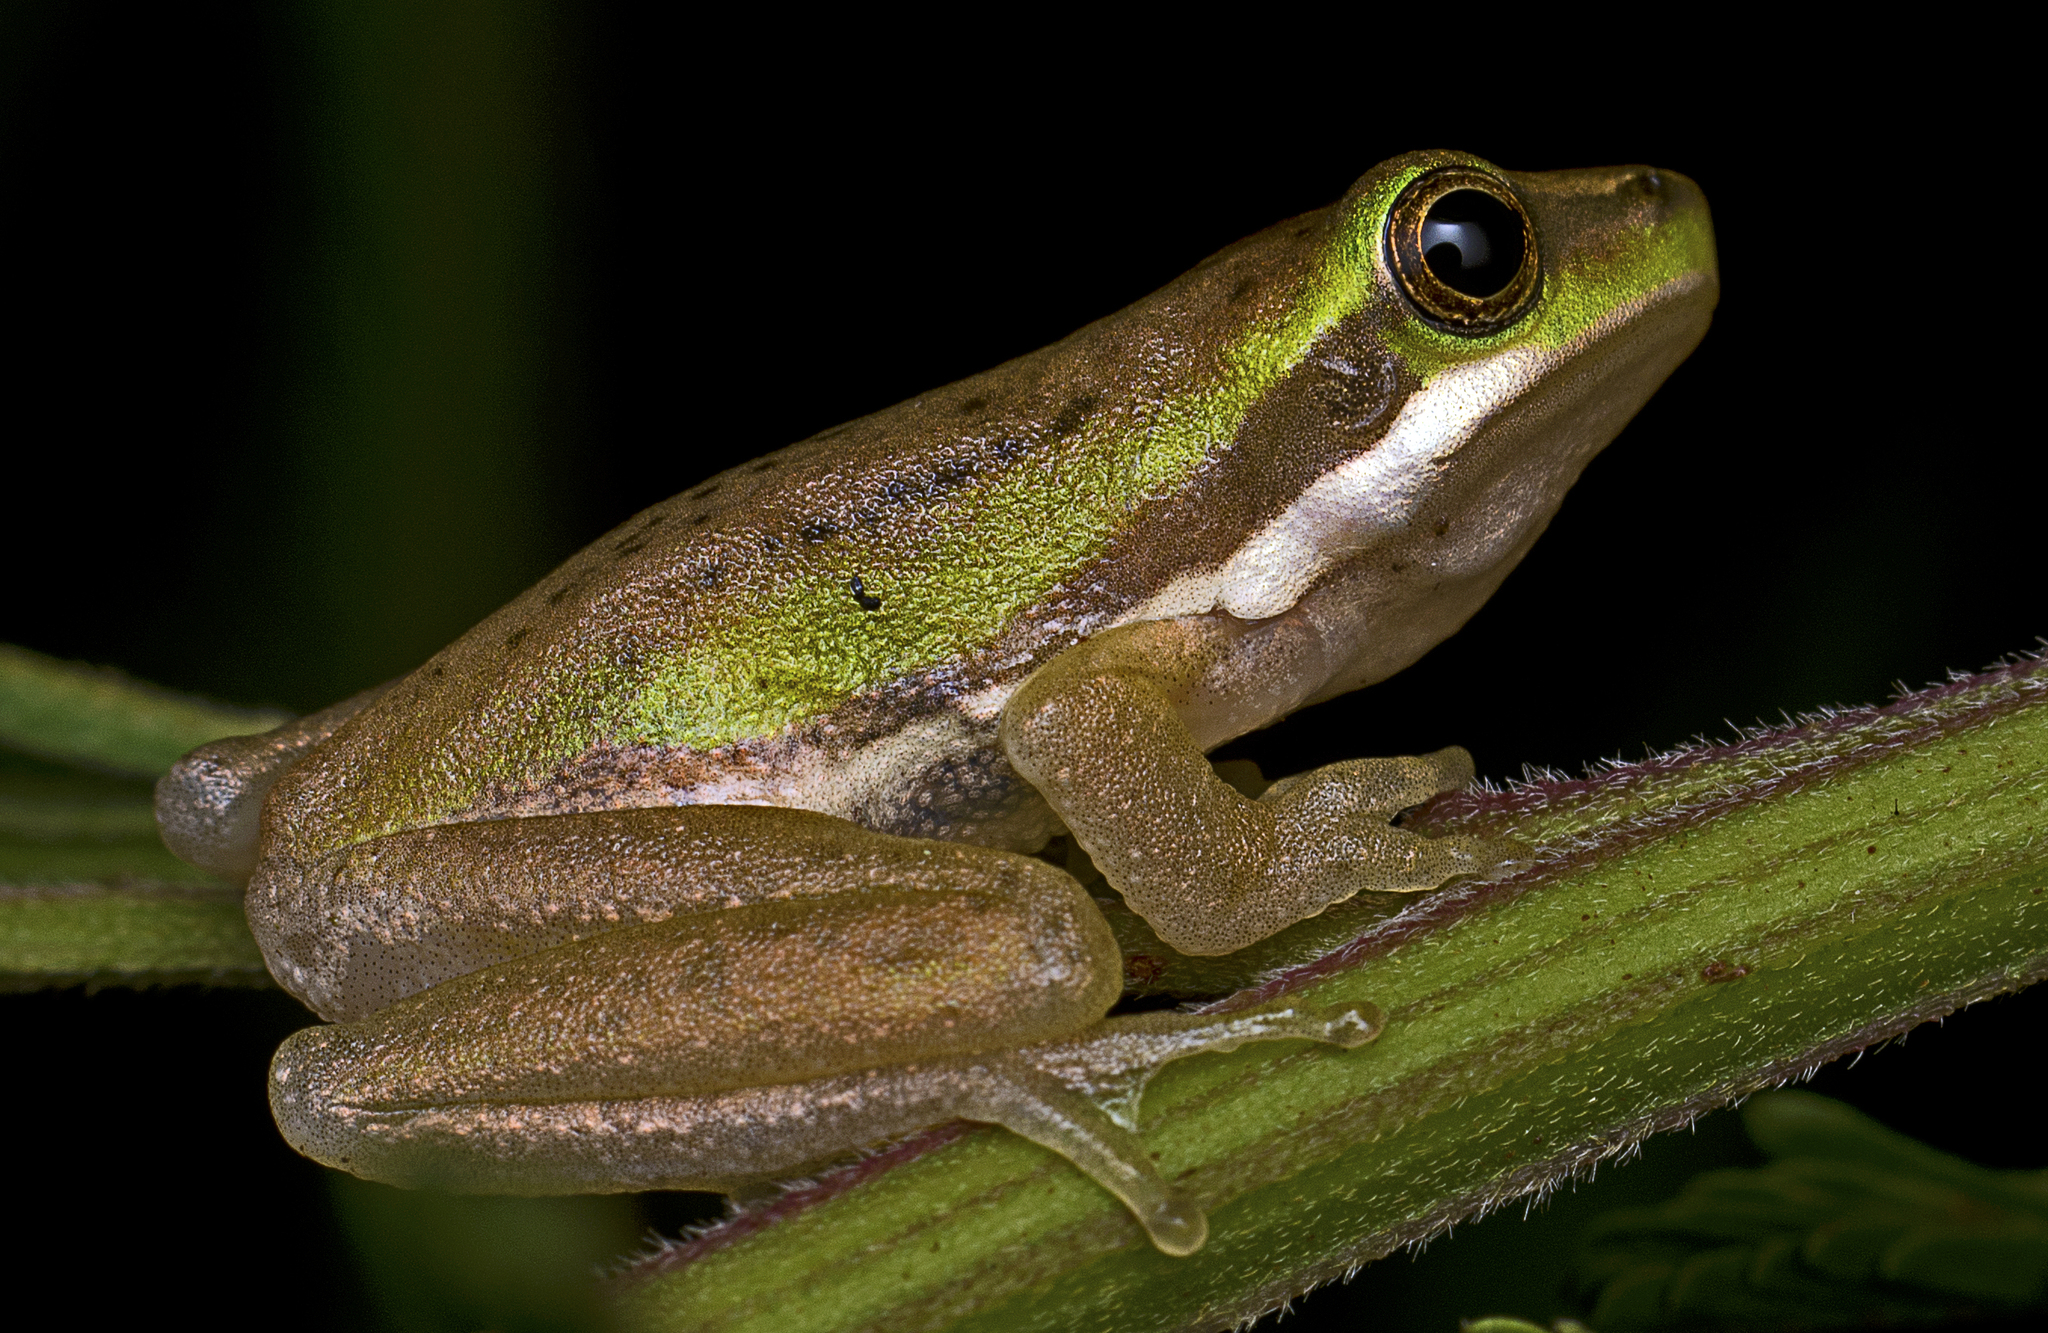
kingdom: Animalia
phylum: Chordata
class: Amphibia
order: Anura
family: Pelodryadidae
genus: Litoria
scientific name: Litoria fallax
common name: Eastern dwarf treefrog
